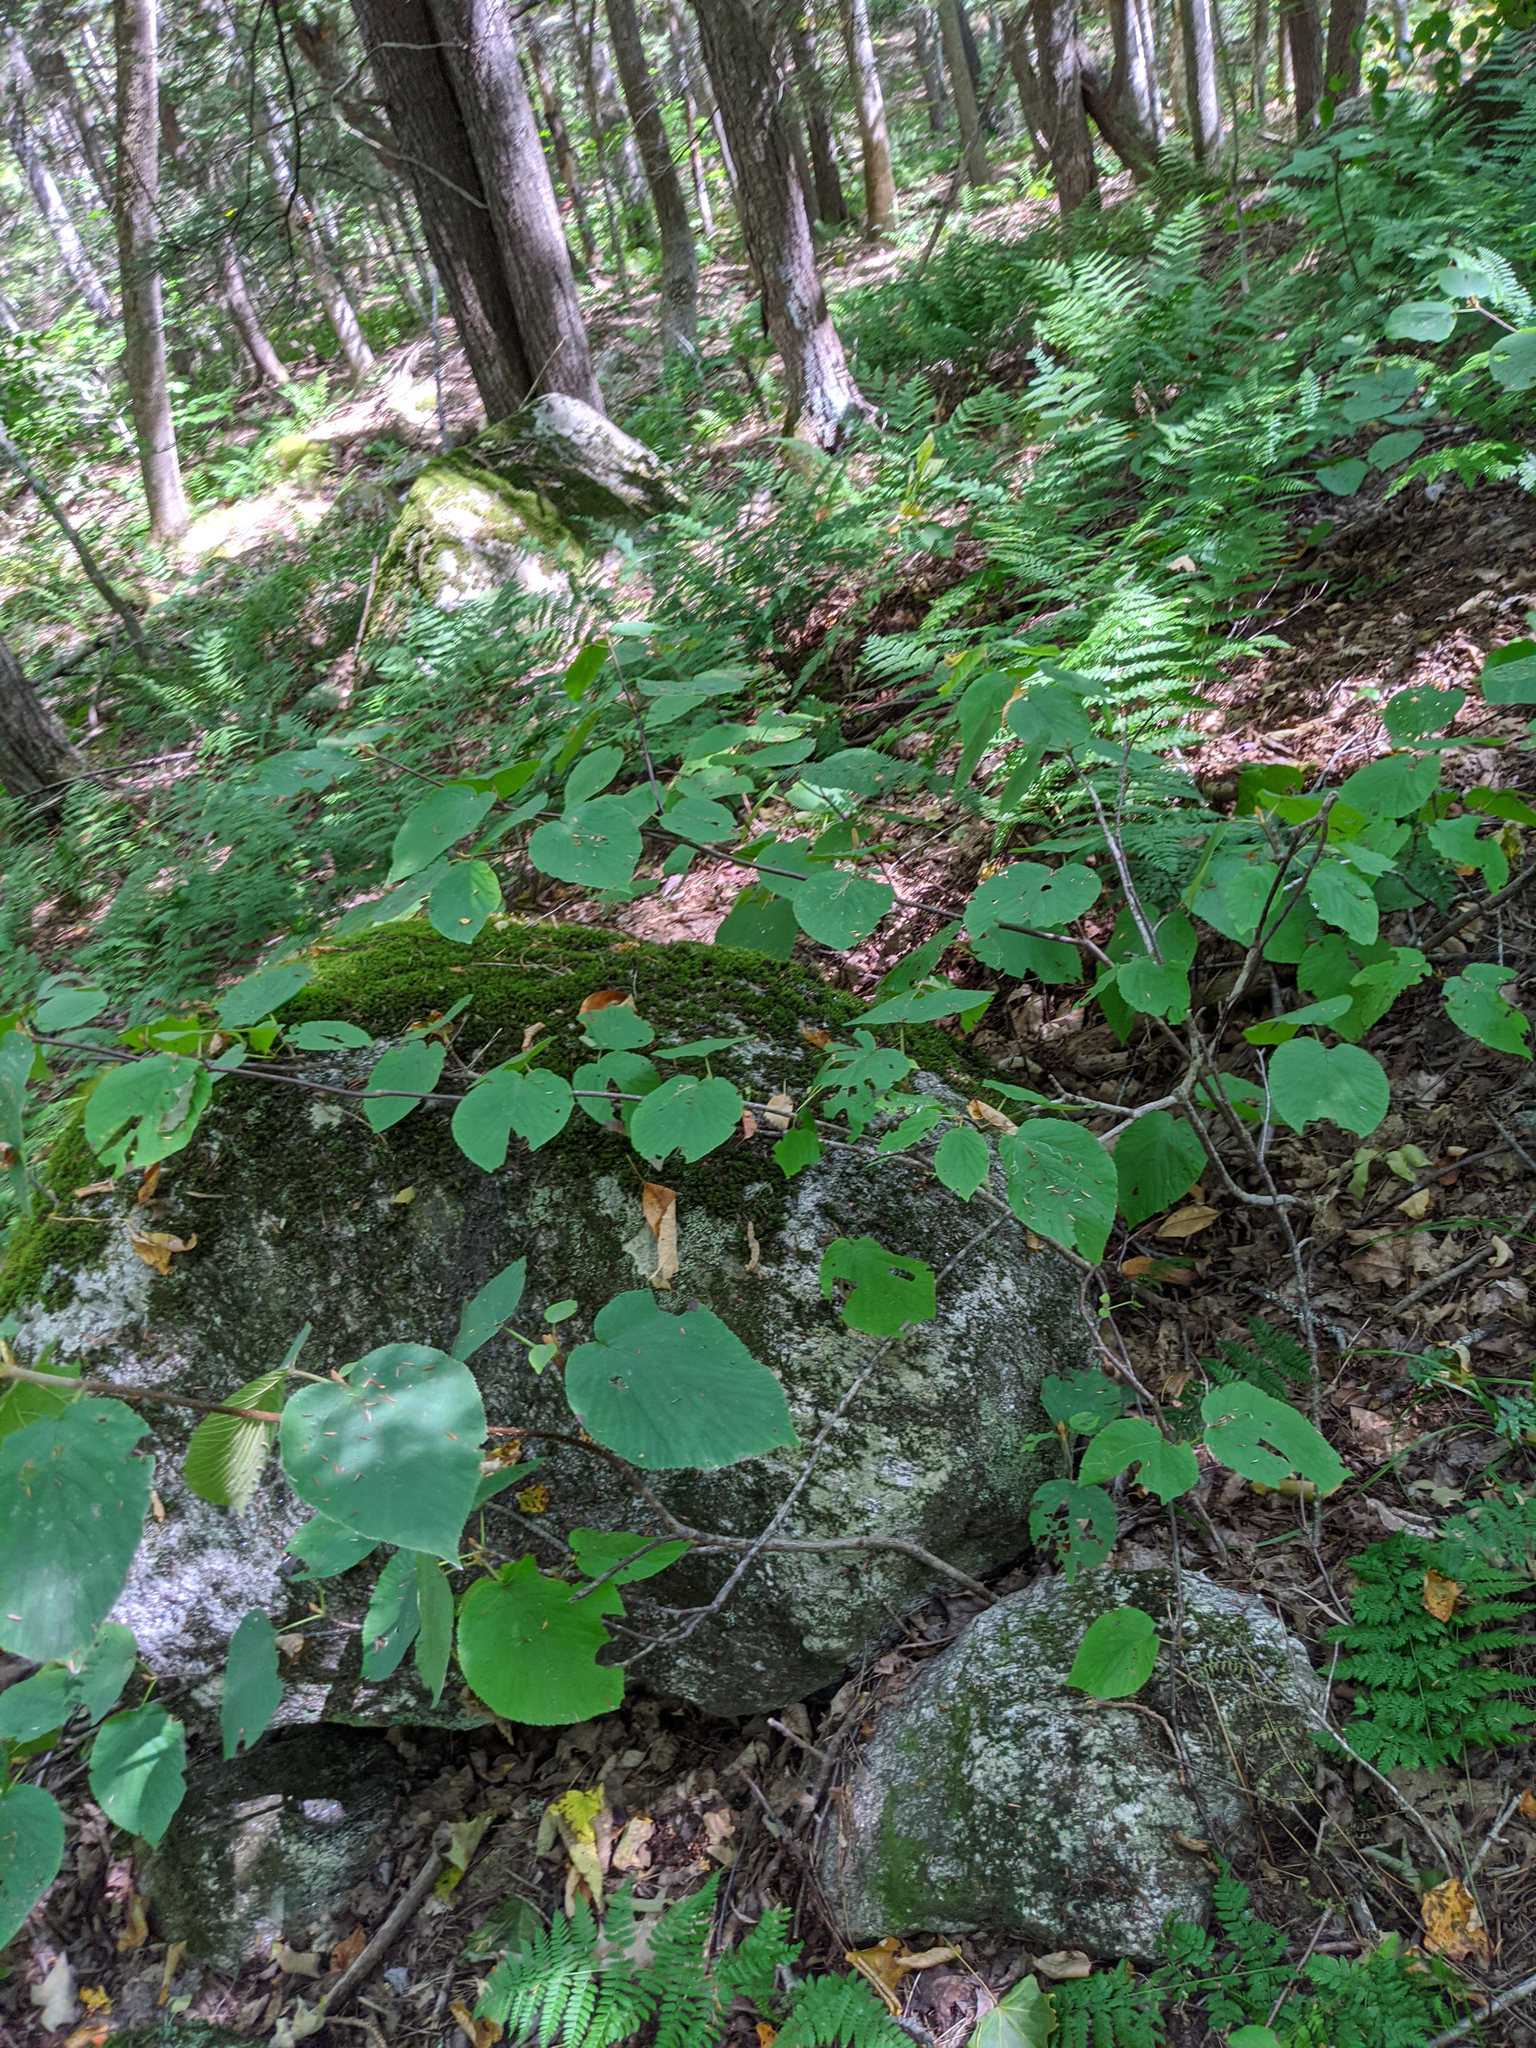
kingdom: Plantae
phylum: Tracheophyta
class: Magnoliopsida
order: Dipsacales
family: Viburnaceae
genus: Viburnum
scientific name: Viburnum lantanoides
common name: Hobblebush
